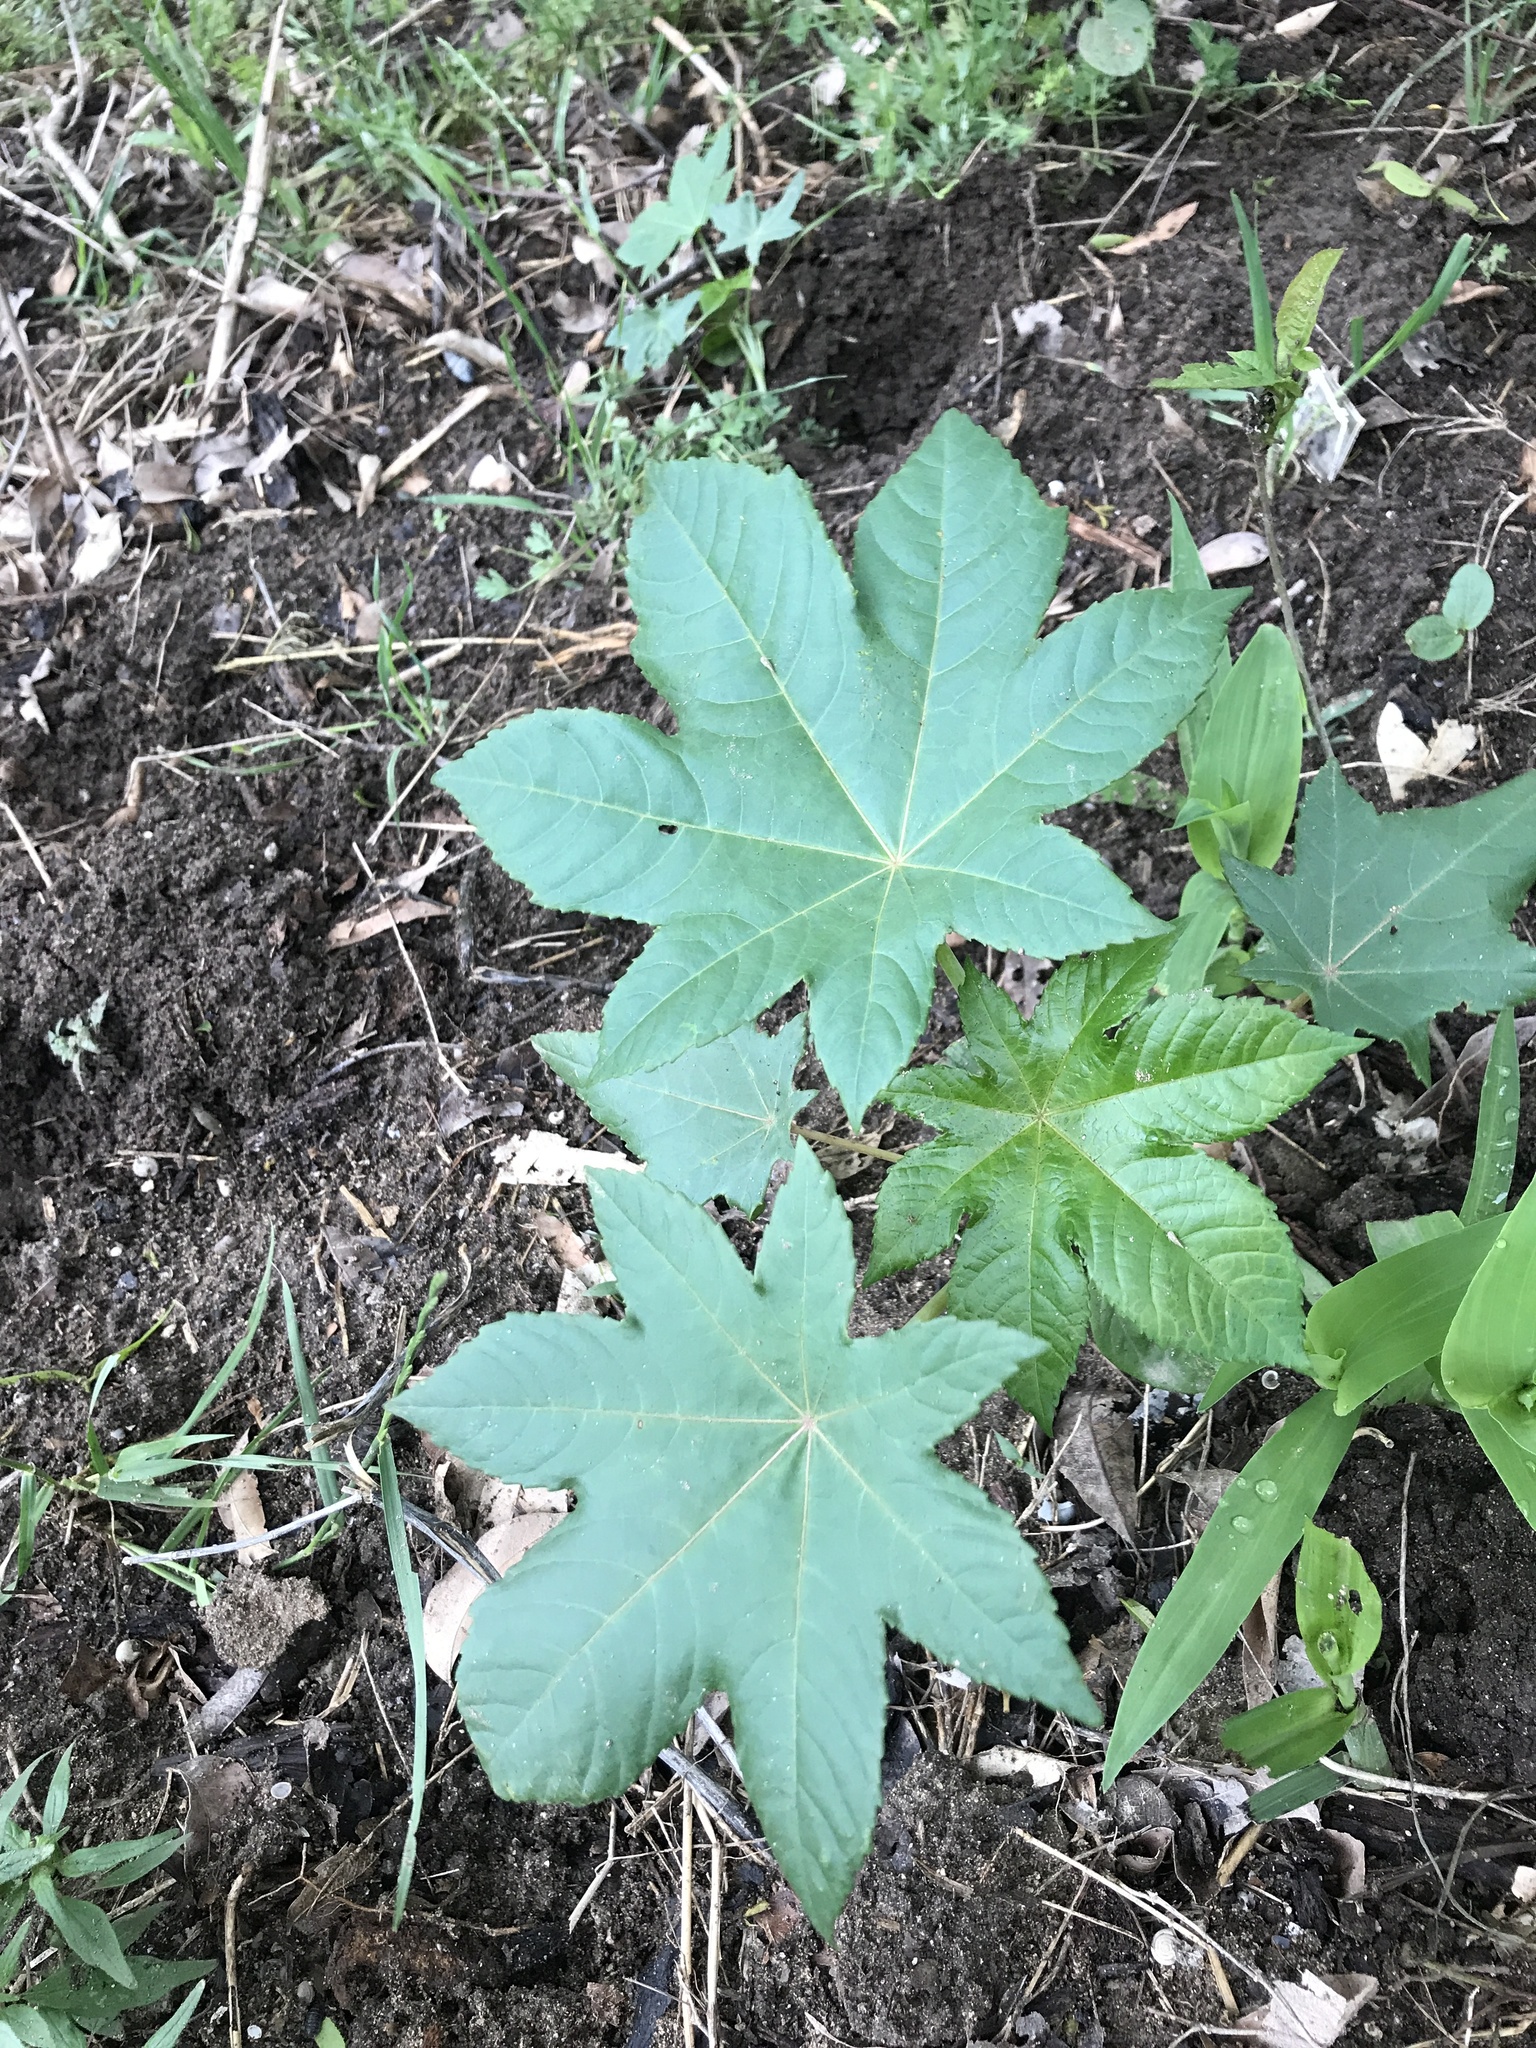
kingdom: Plantae
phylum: Tracheophyta
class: Magnoliopsida
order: Malpighiales
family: Euphorbiaceae
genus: Ricinus
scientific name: Ricinus communis
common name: Castor-oil-plant
